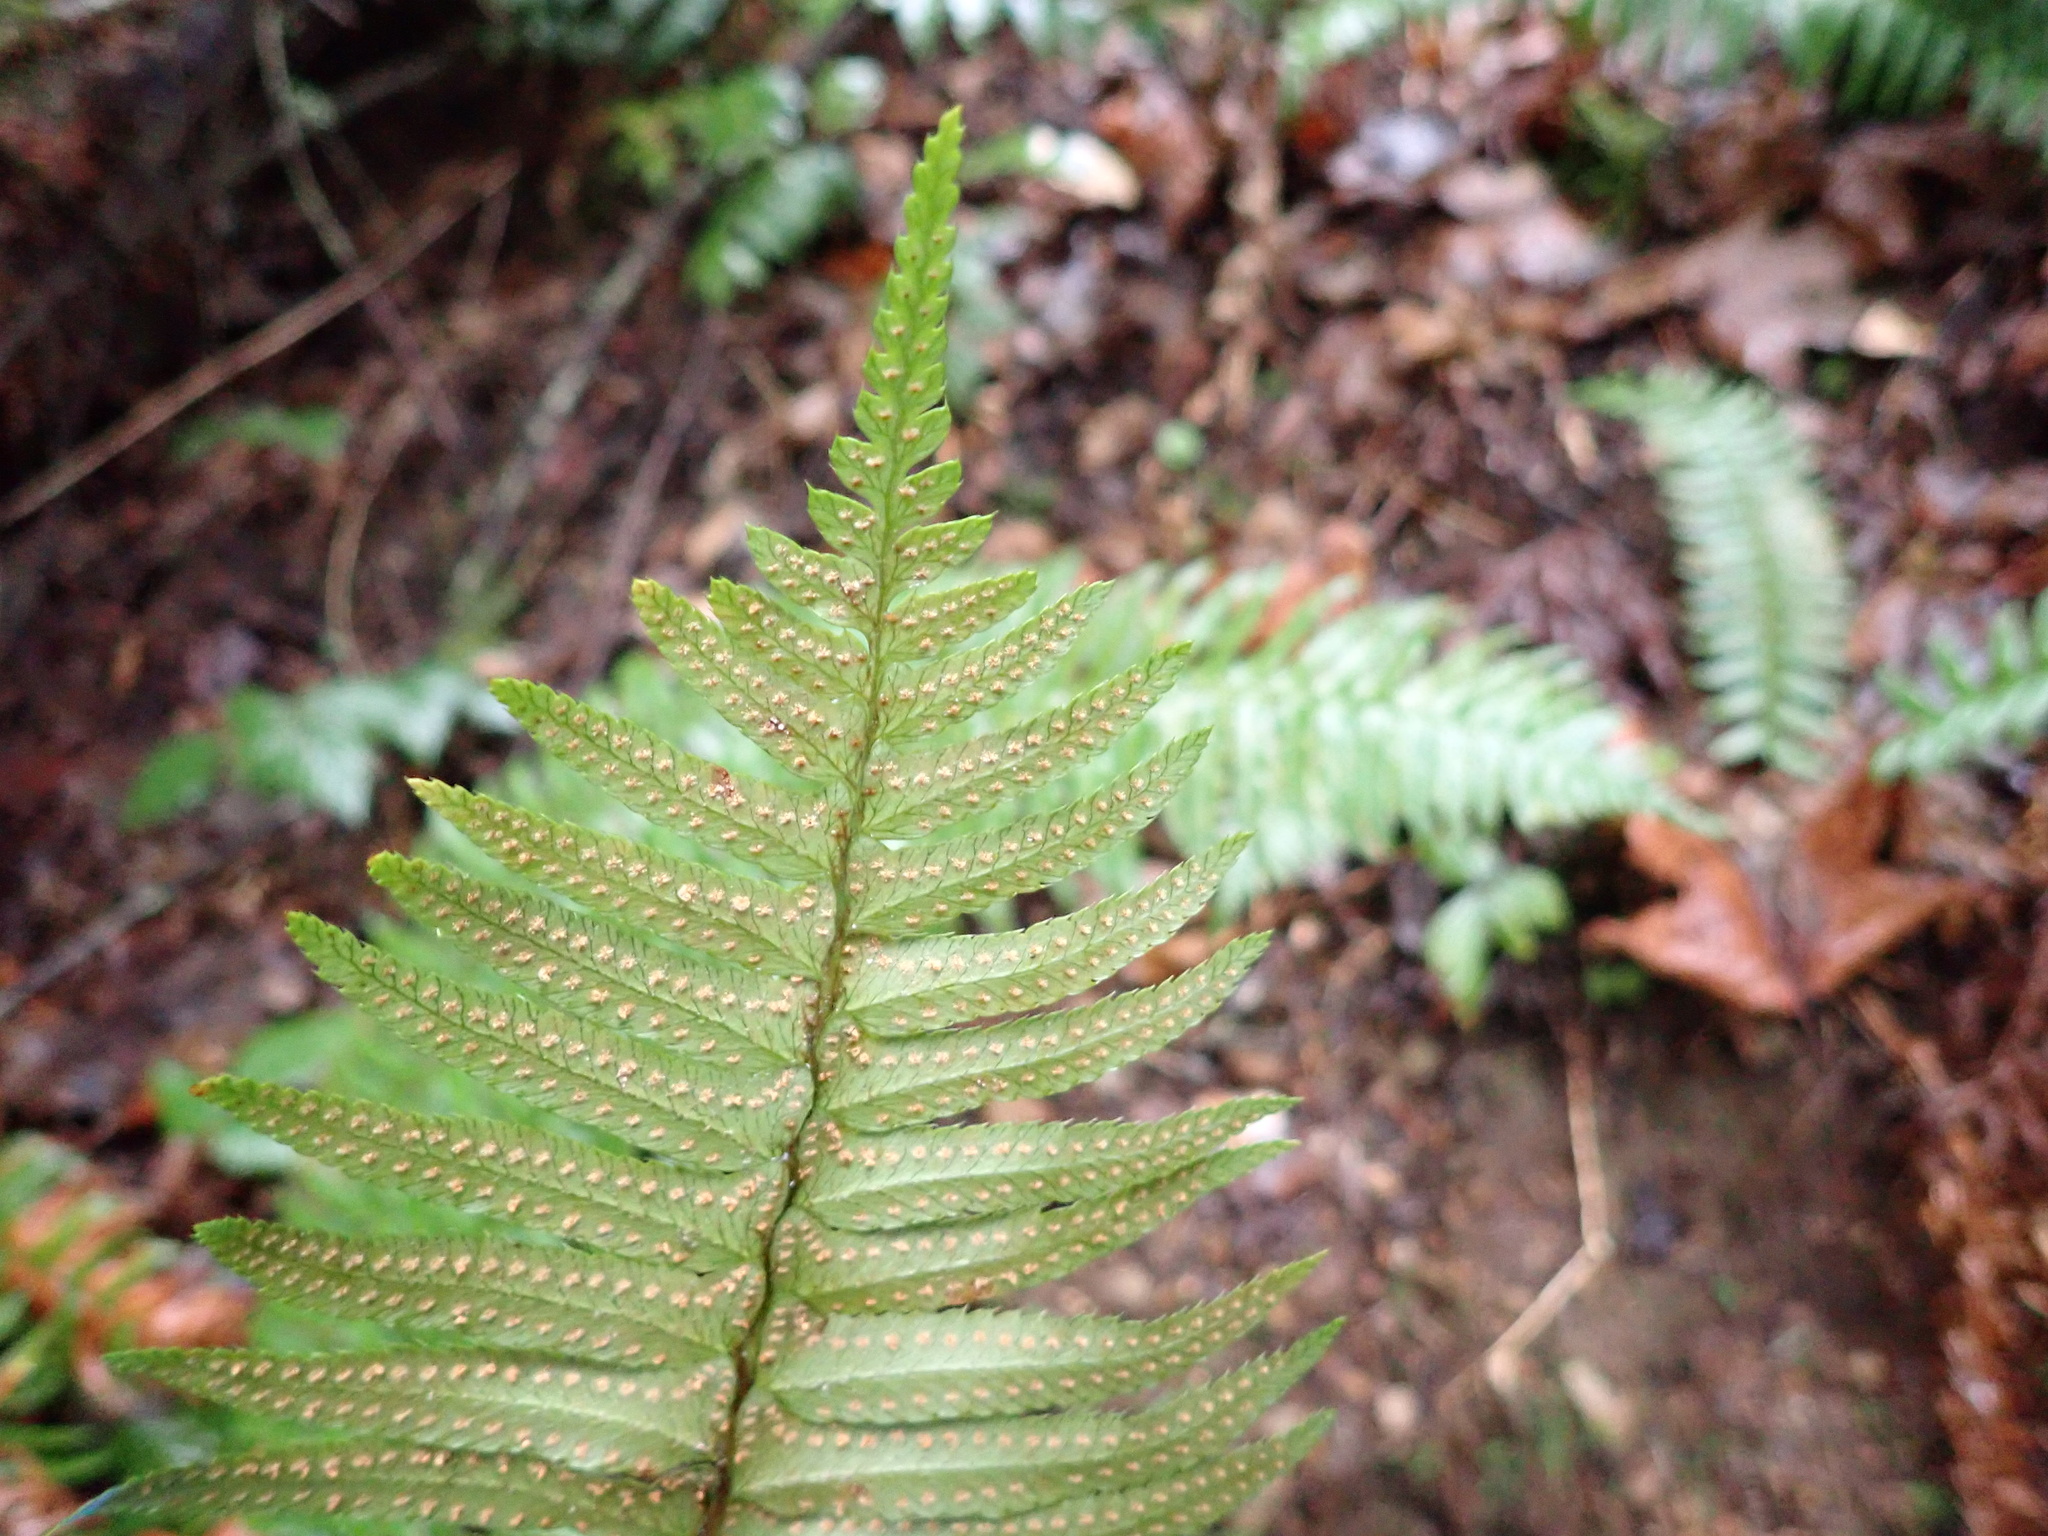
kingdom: Plantae
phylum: Tracheophyta
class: Polypodiopsida
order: Polypodiales
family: Dryopteridaceae
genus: Polystichum
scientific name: Polystichum munitum
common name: Western sword-fern
